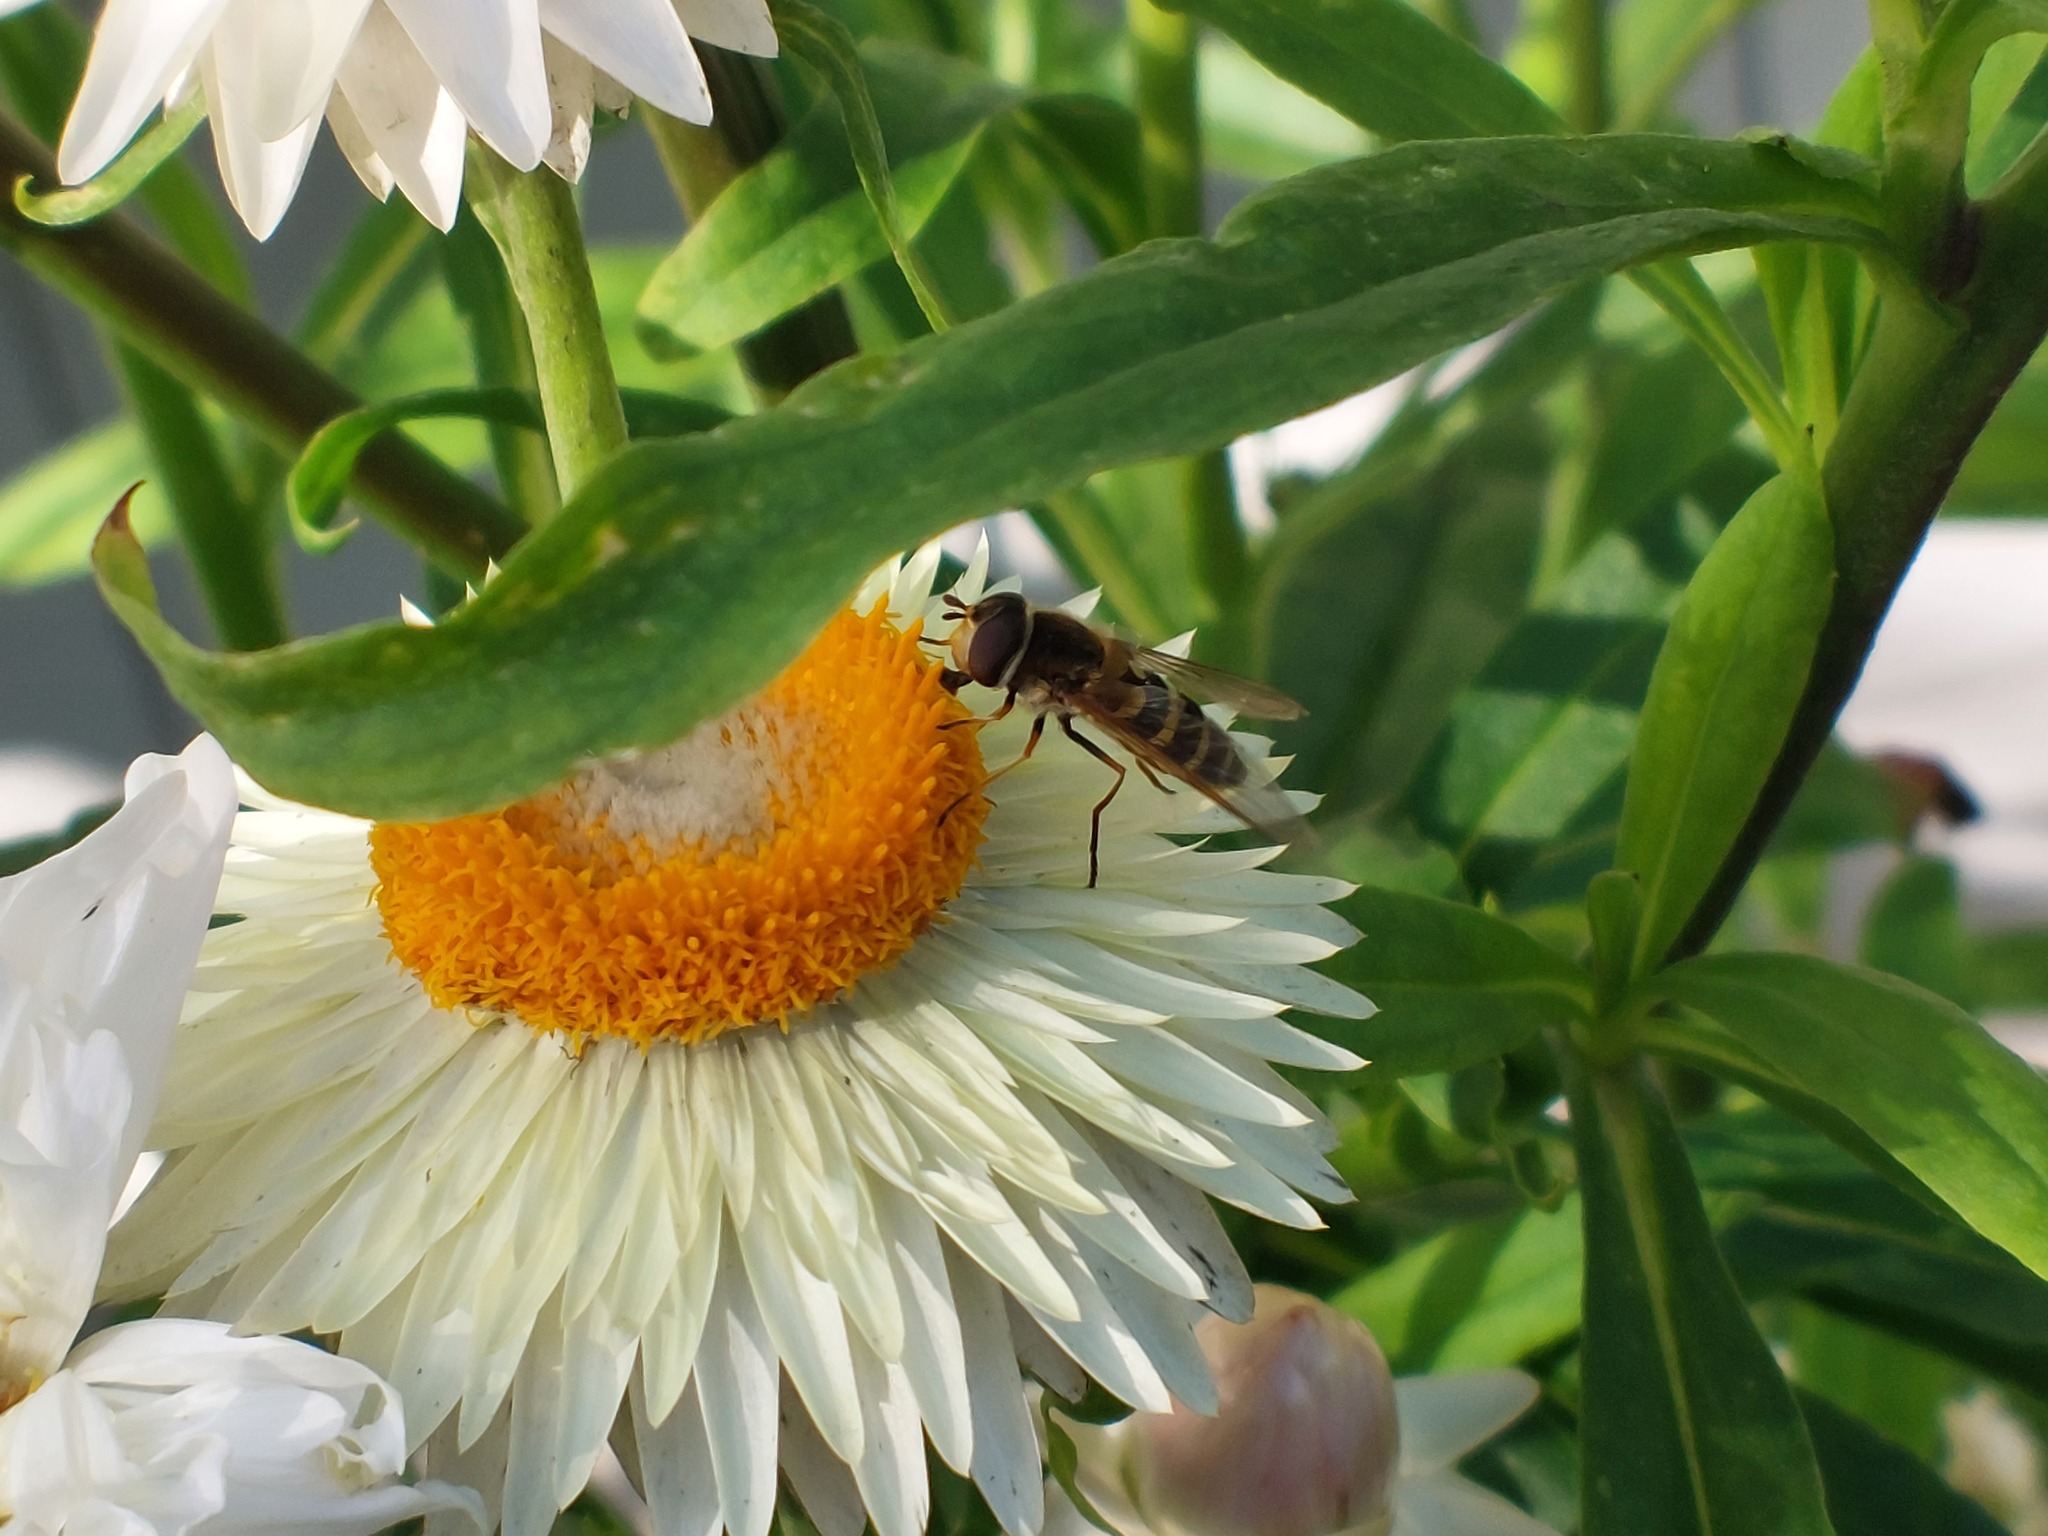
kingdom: Animalia
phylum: Arthropoda
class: Insecta
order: Diptera
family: Syrphidae
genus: Syrphus
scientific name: Syrphus
